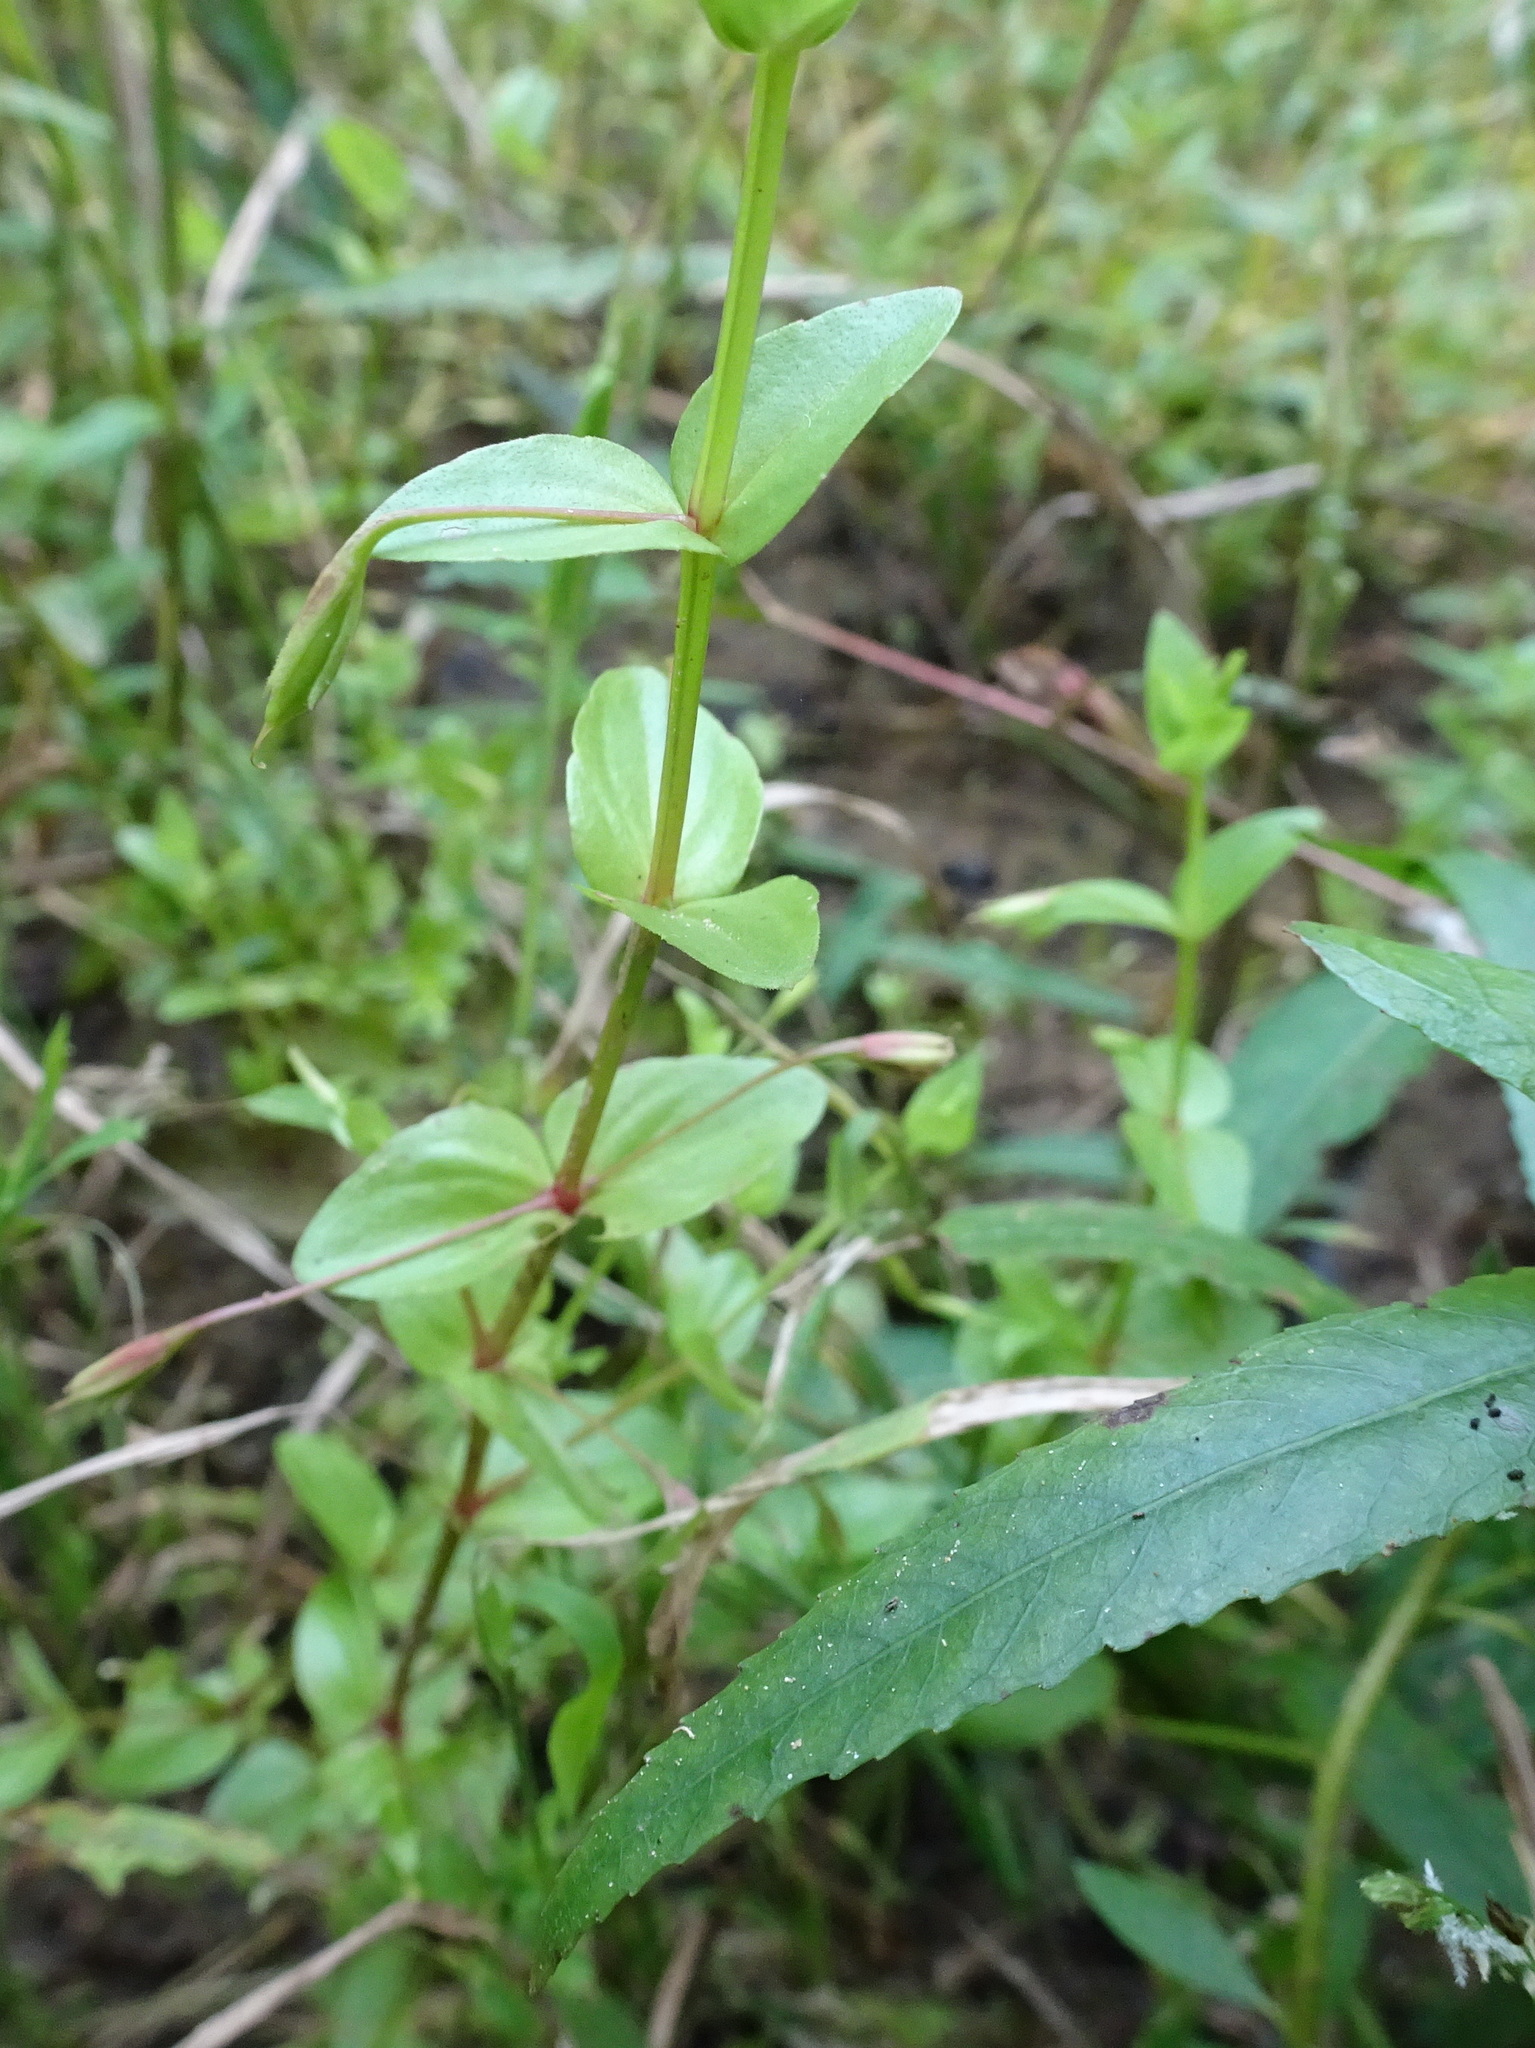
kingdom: Plantae
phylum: Tracheophyta
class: Magnoliopsida
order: Lamiales
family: Linderniaceae
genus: Lindernia
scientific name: Lindernia dubia
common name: Annual false pimpernel
